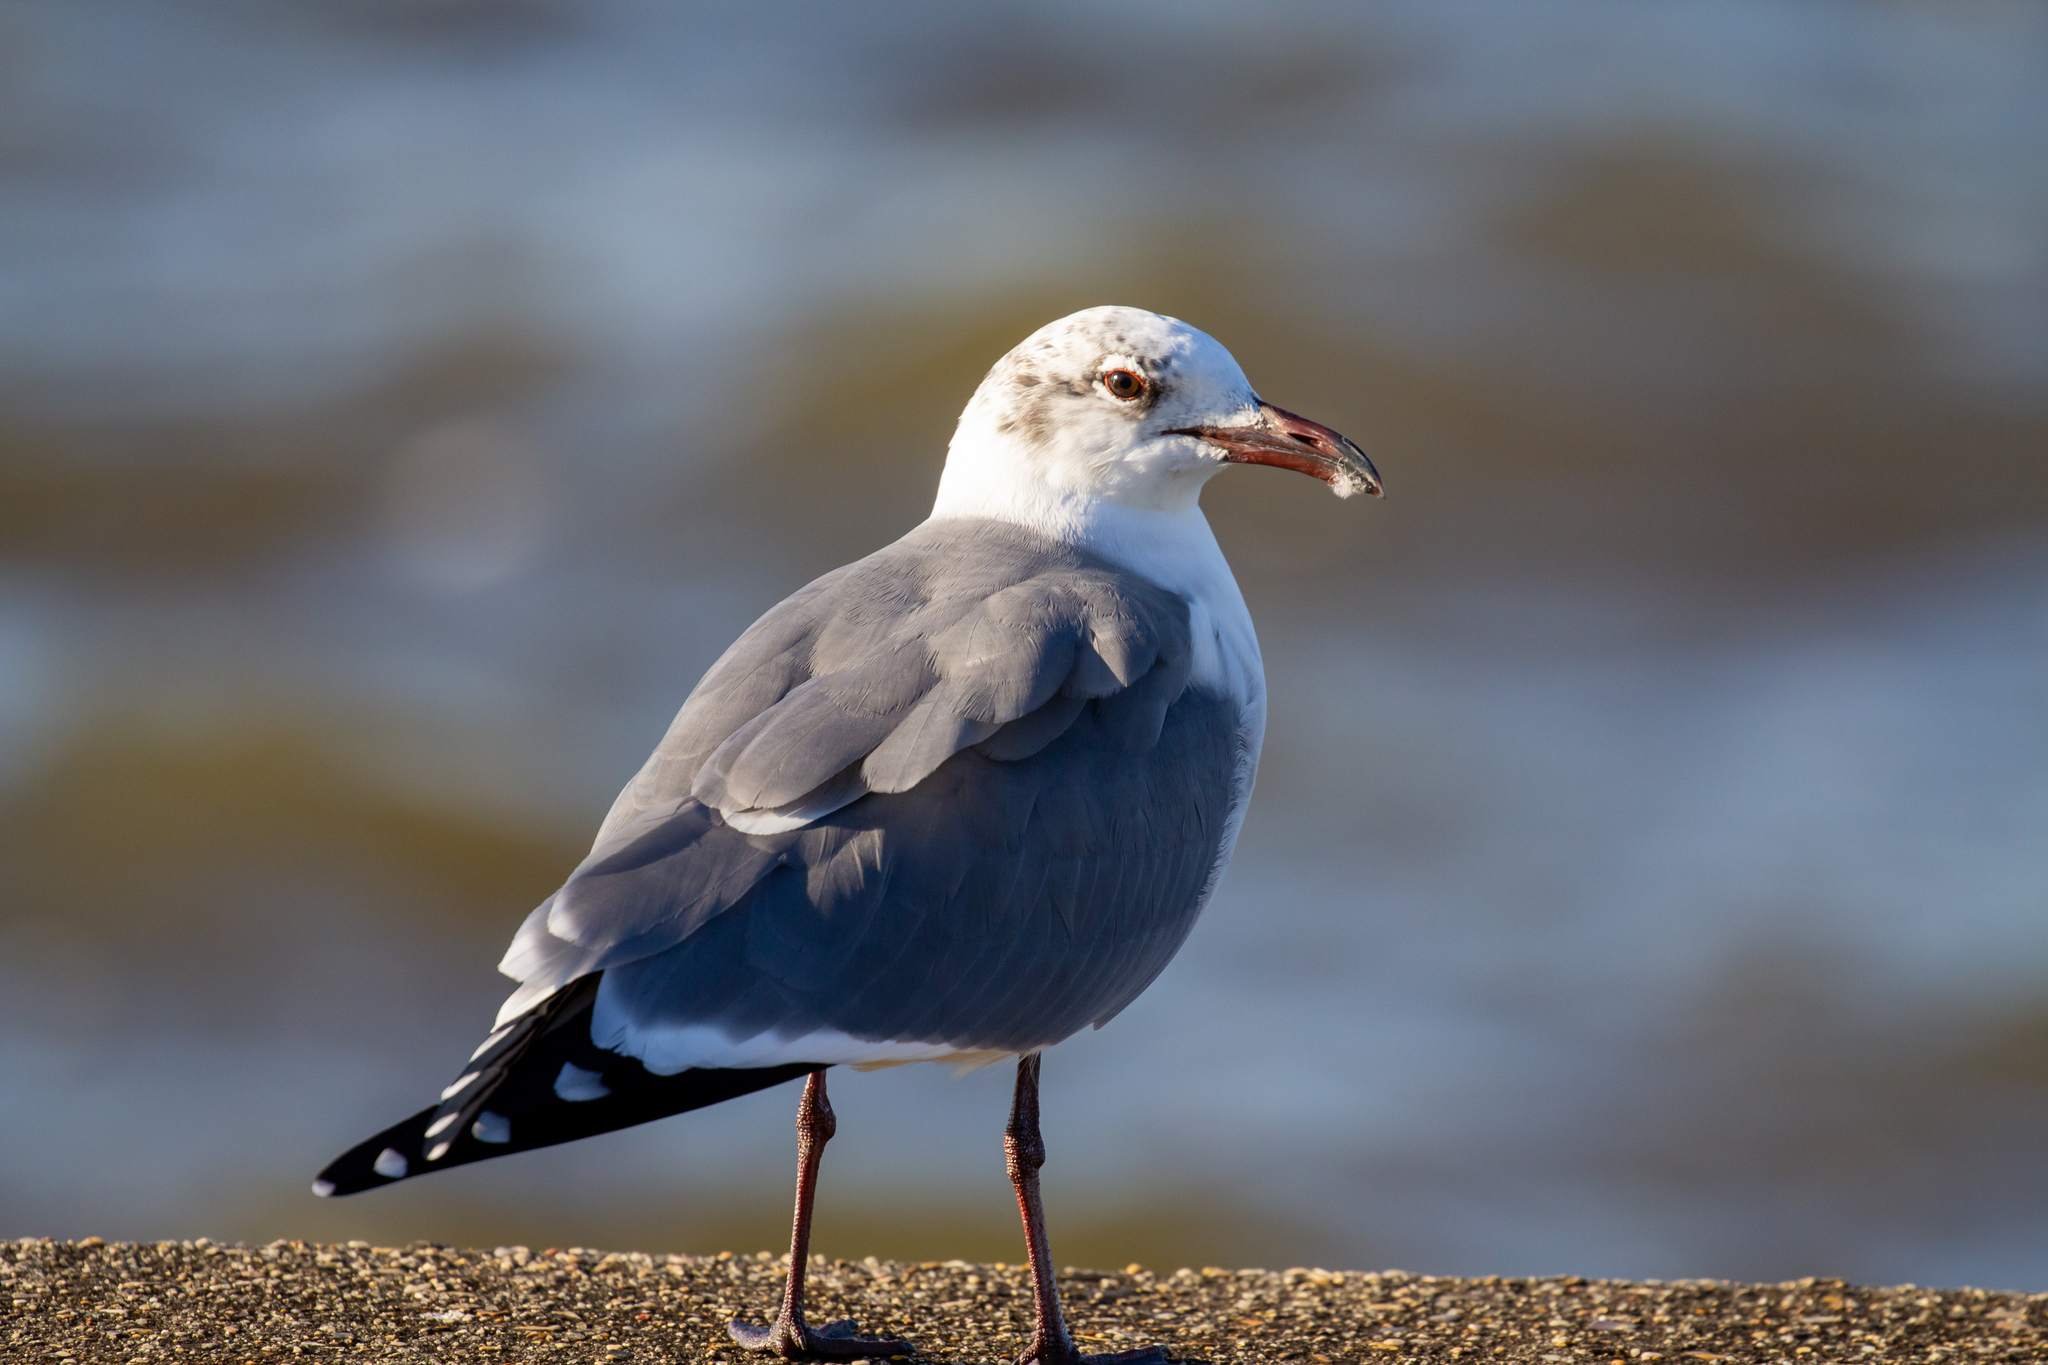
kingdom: Animalia
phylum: Chordata
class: Aves
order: Charadriiformes
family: Laridae
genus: Leucophaeus
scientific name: Leucophaeus atricilla
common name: Laughing gull
